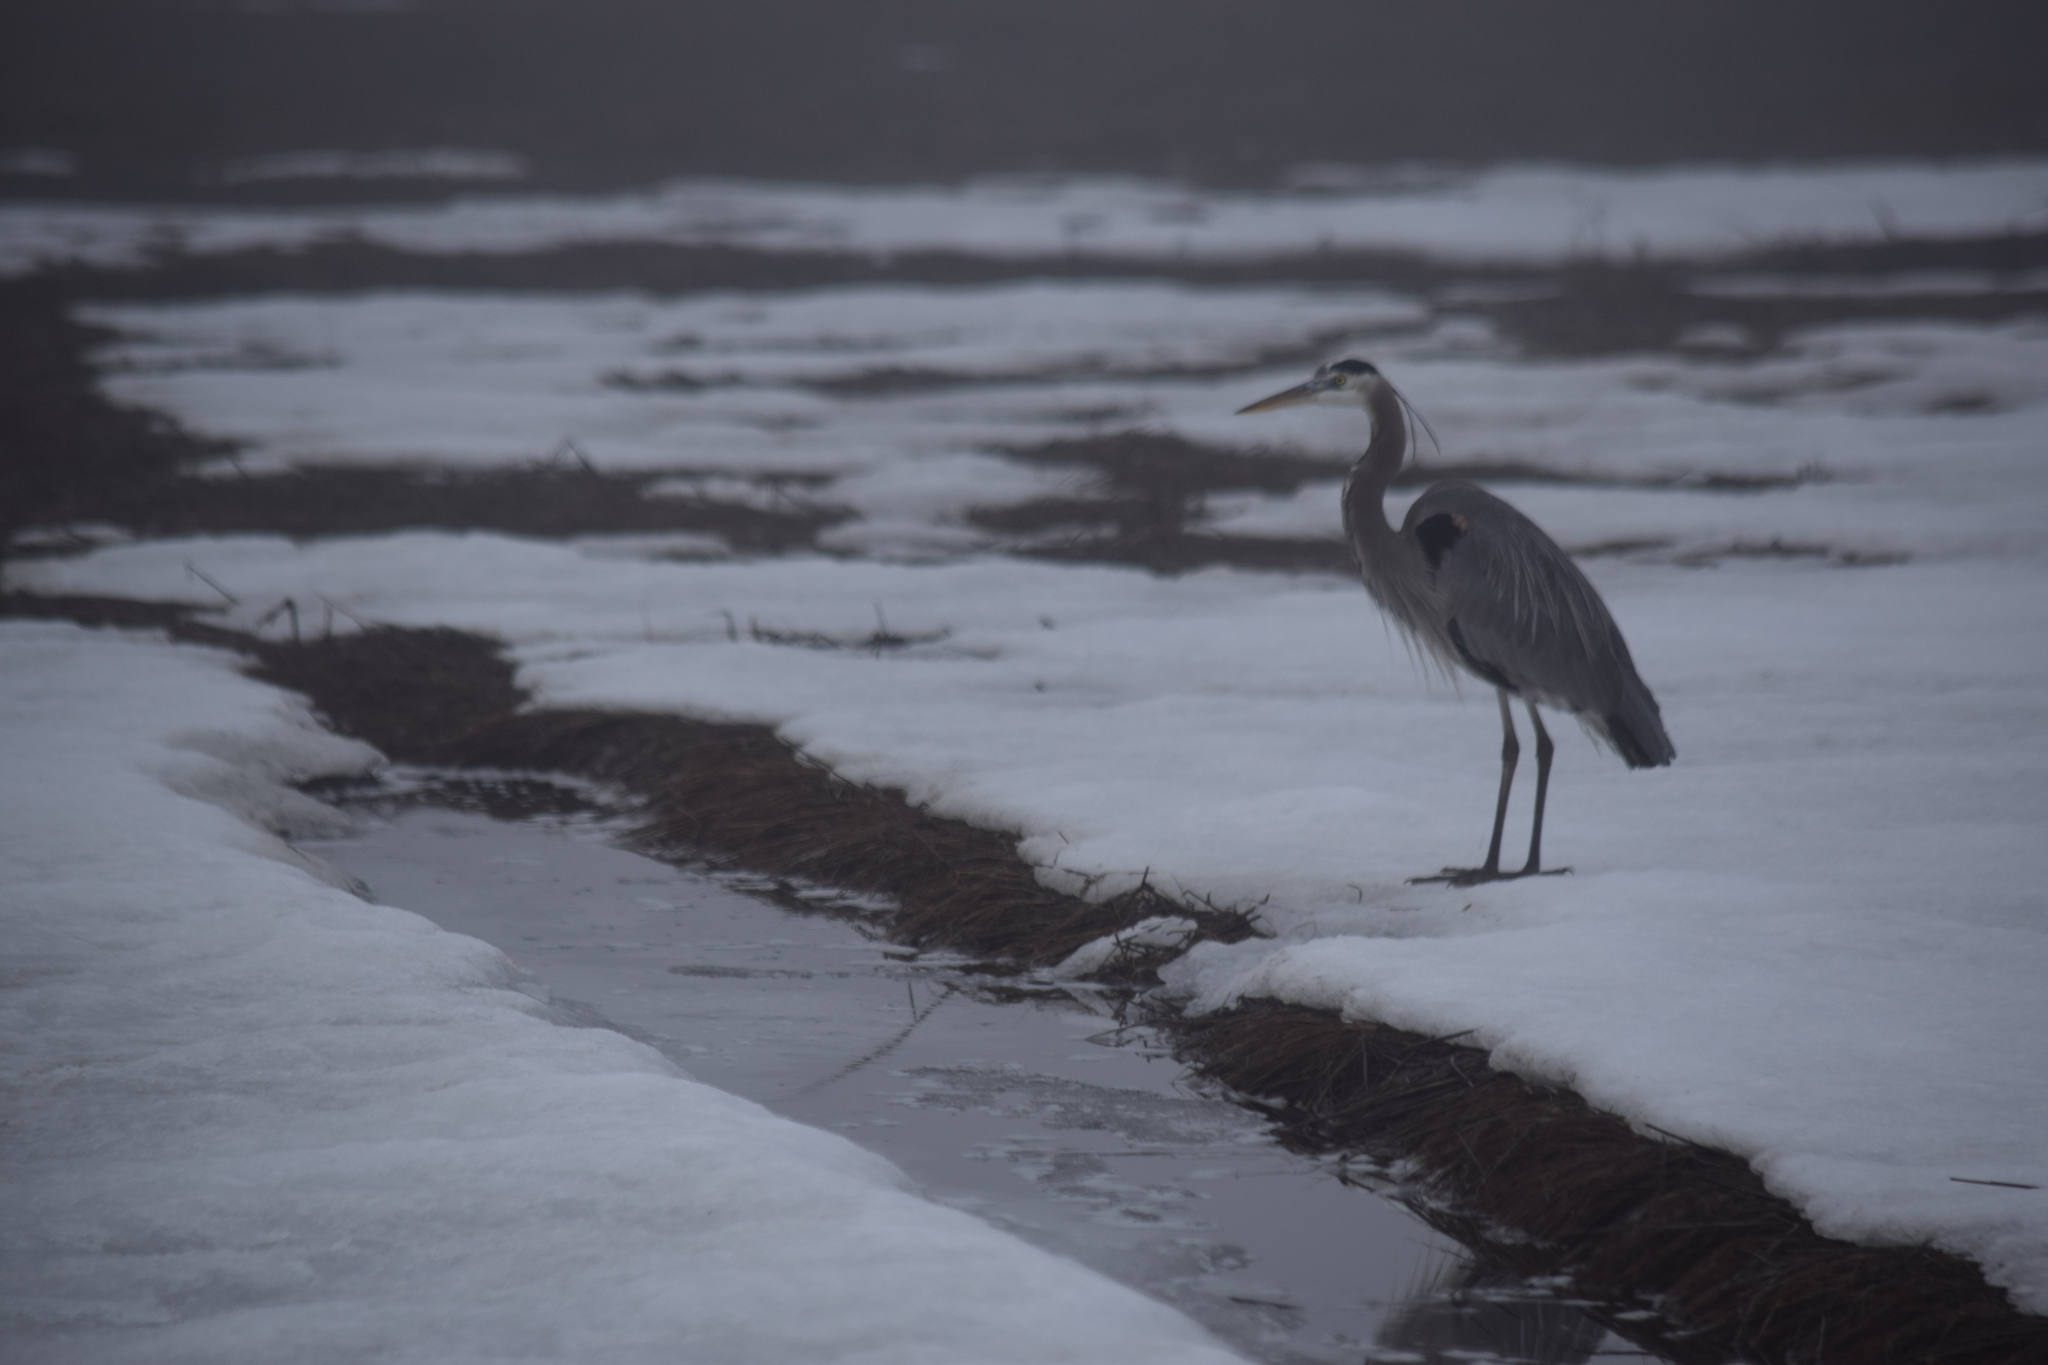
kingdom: Animalia
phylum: Chordata
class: Aves
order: Pelecaniformes
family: Ardeidae
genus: Ardea
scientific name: Ardea herodias
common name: Great blue heron
